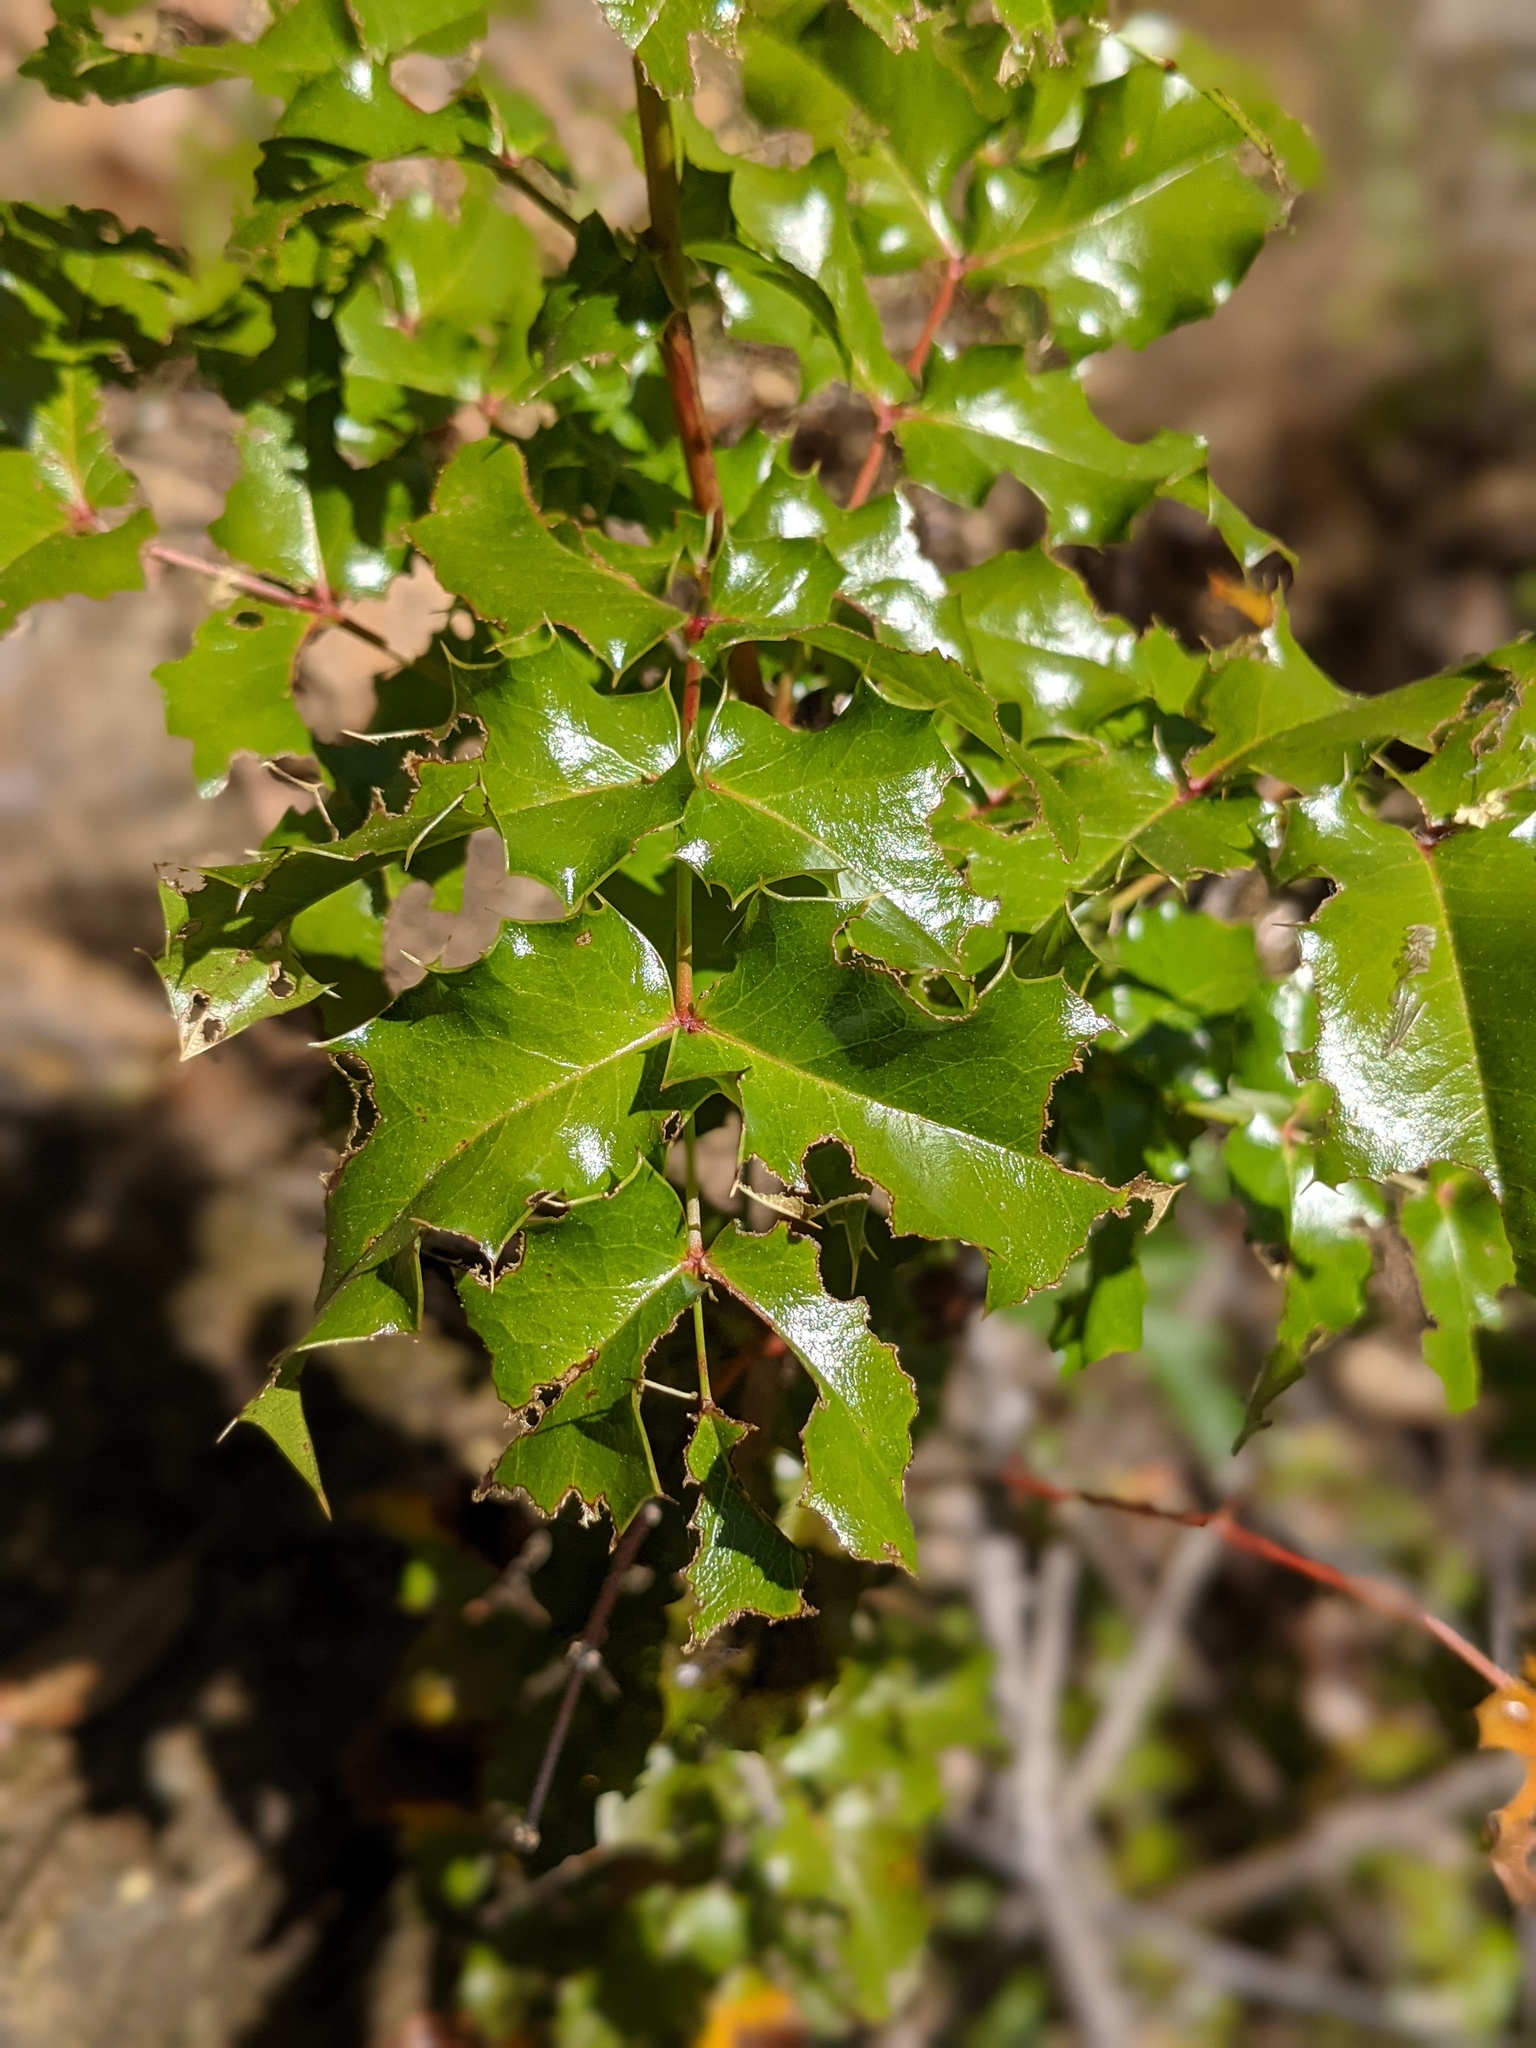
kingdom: Plantae
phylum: Tracheophyta
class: Magnoliopsida
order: Ranunculales
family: Berberidaceae
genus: Mahonia
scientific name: Mahonia
